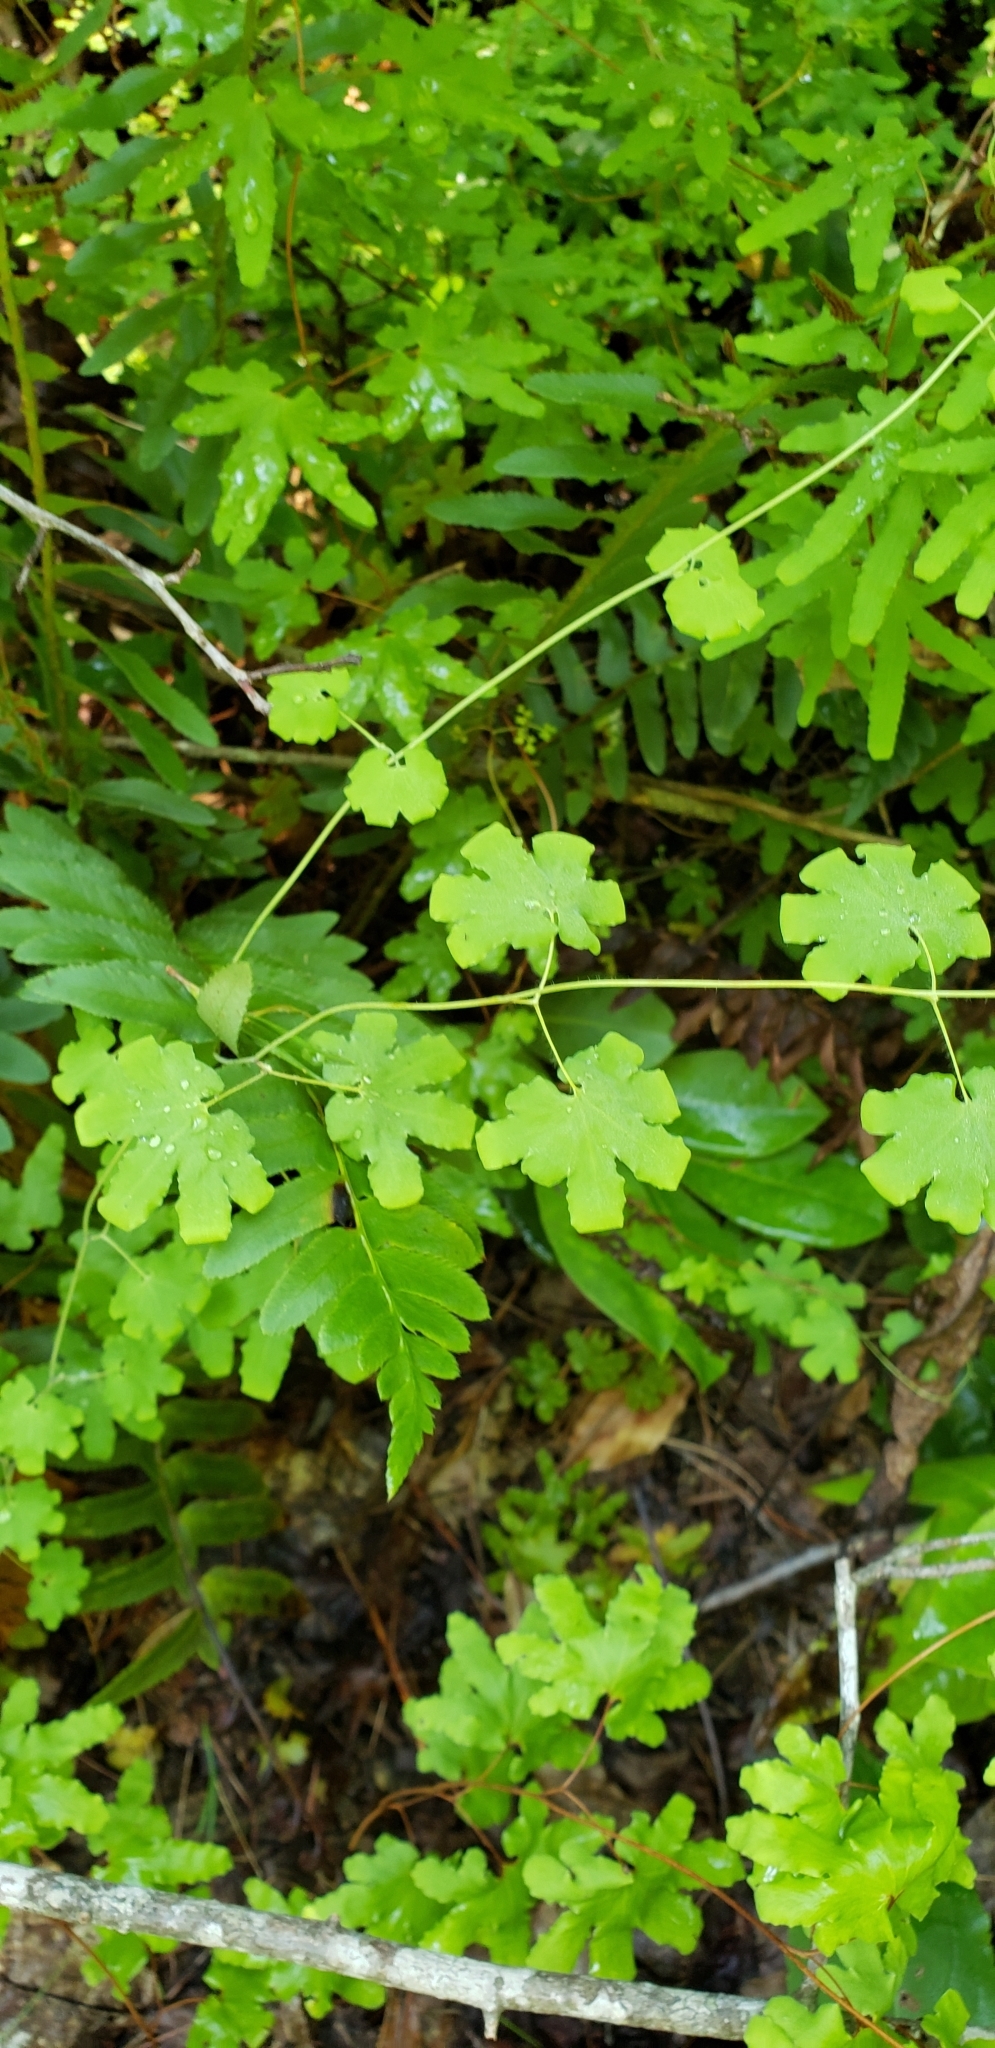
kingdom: Plantae
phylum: Tracheophyta
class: Polypodiopsida
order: Schizaeales
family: Lygodiaceae
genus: Lygodium
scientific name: Lygodium palmatum
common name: American climbing fern
